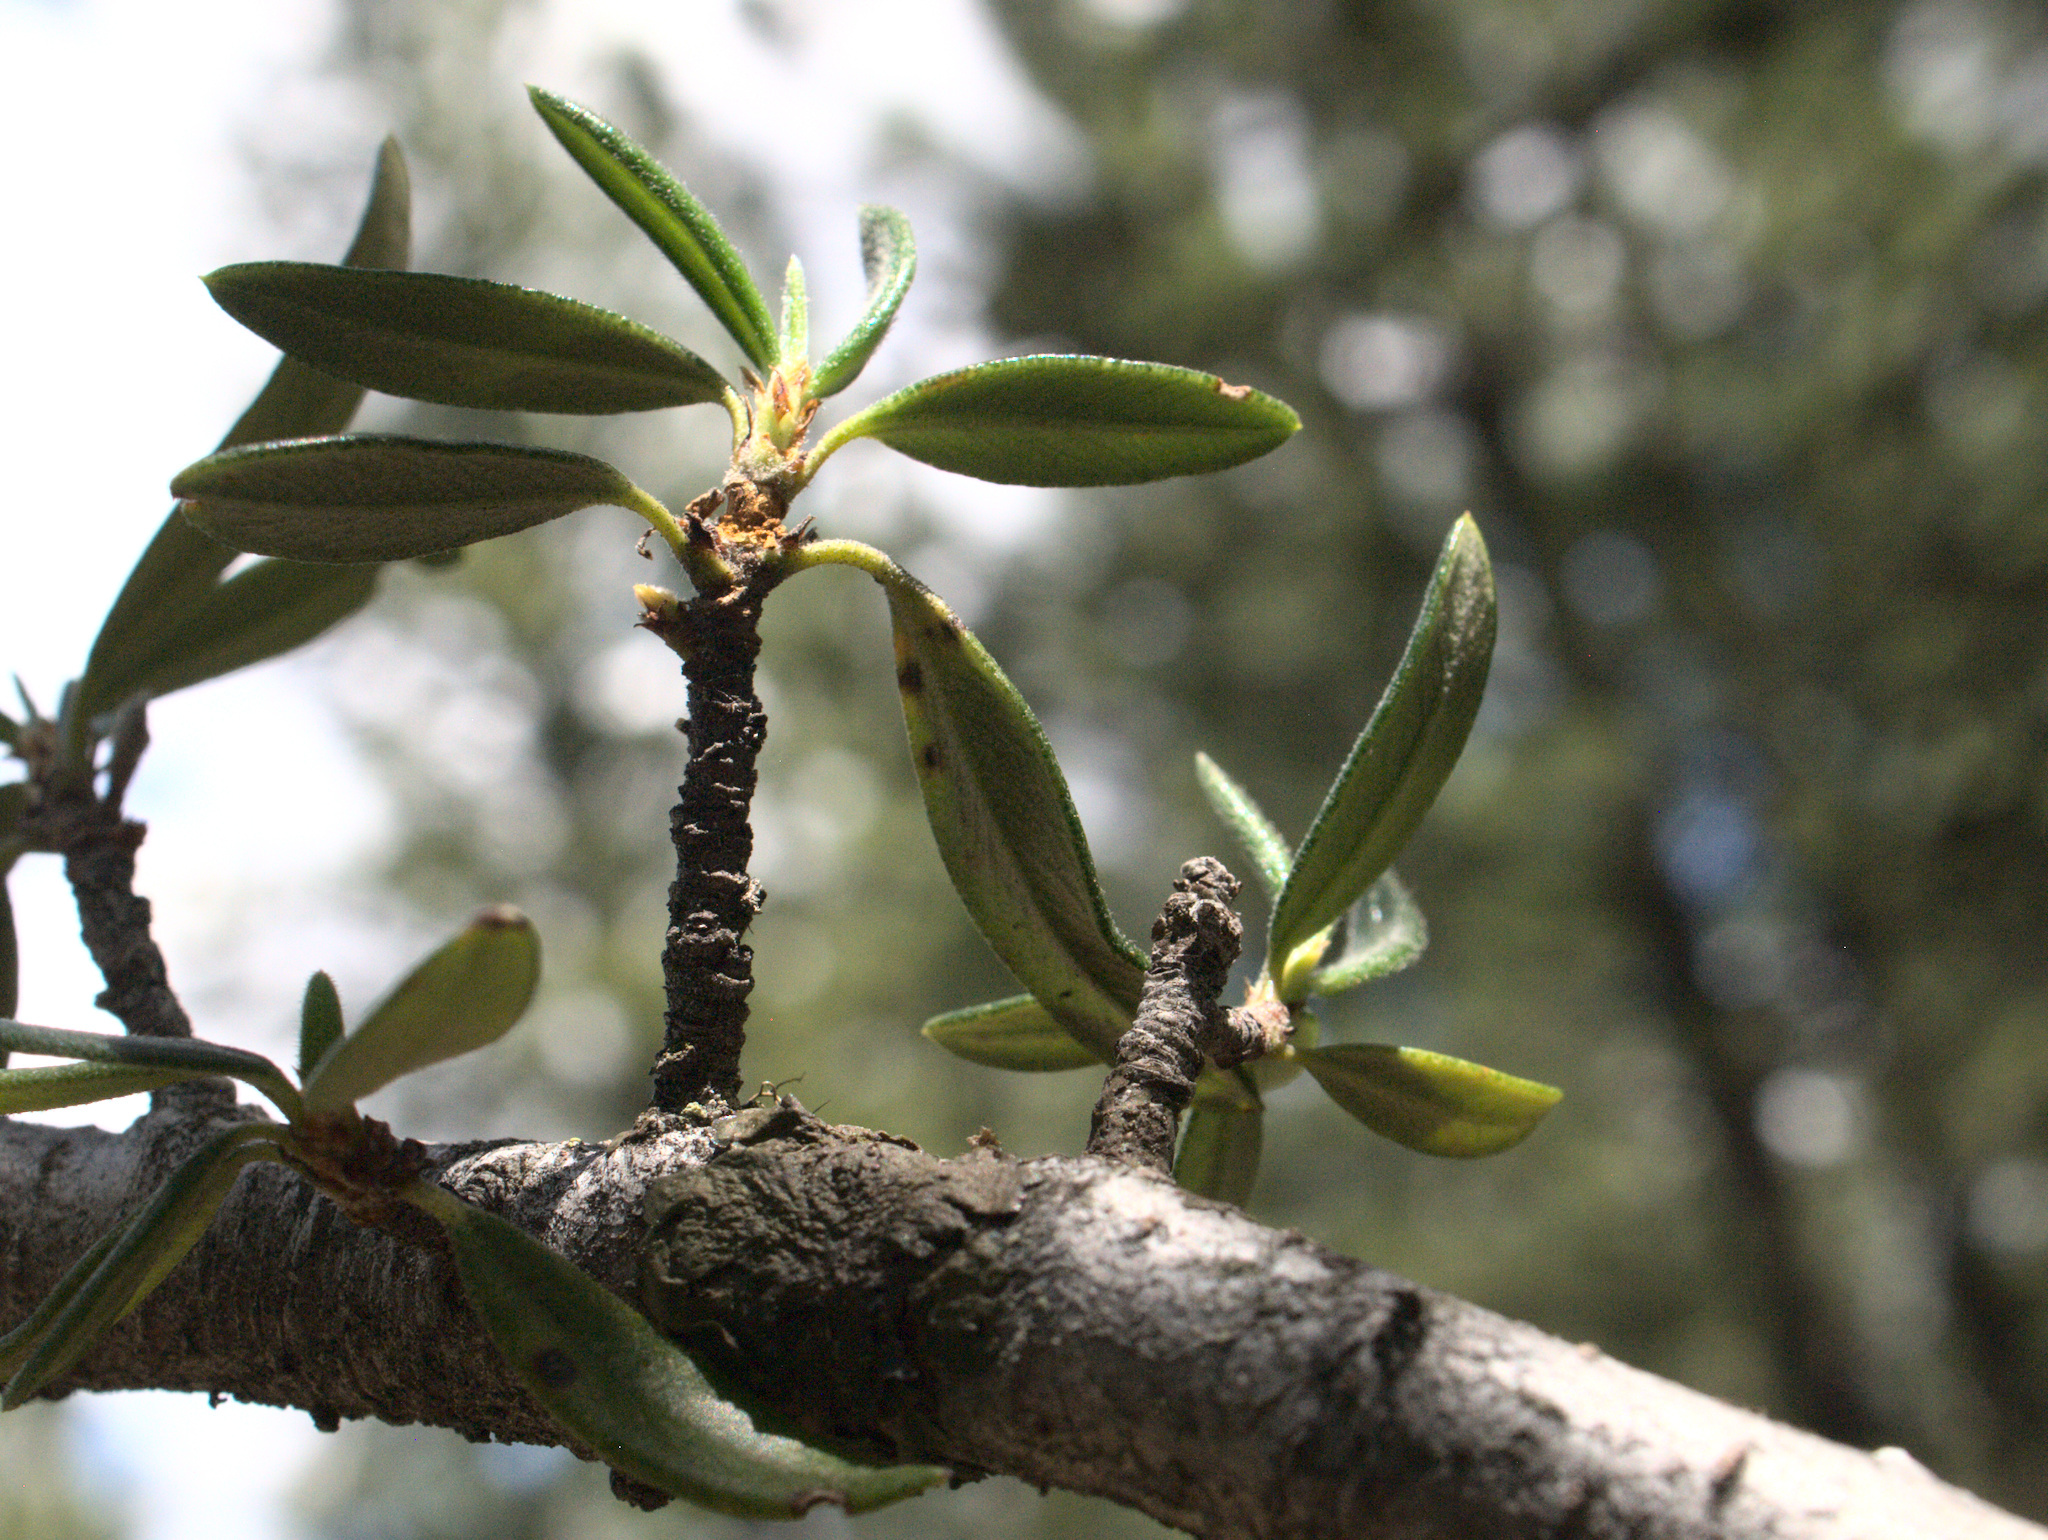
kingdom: Plantae
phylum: Tracheophyta
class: Magnoliopsida
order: Rosales
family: Rosaceae
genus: Cercocarpus
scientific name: Cercocarpus ledifolius
